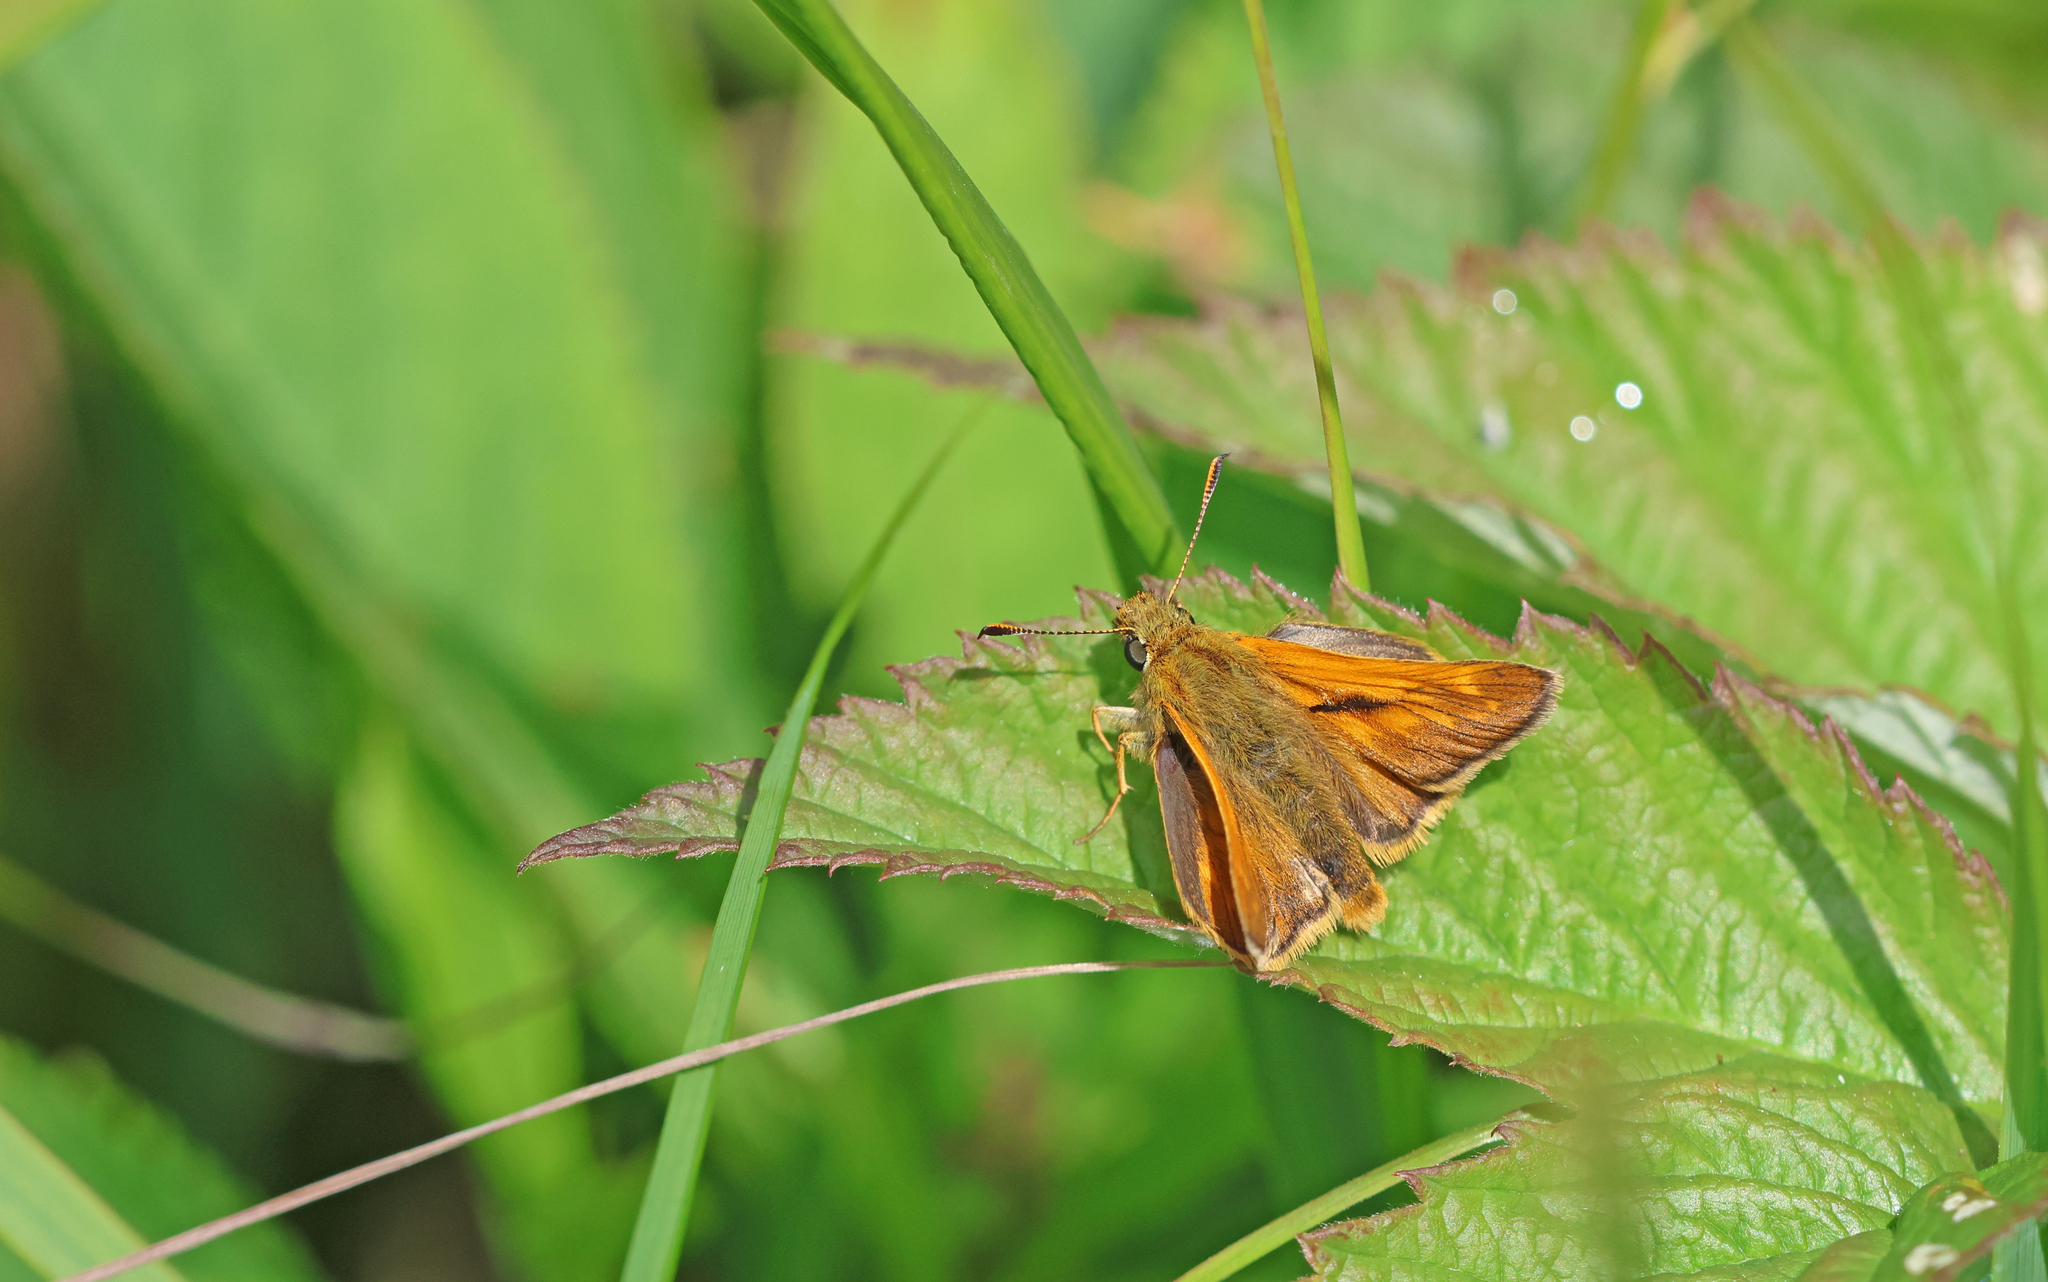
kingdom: Animalia
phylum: Arthropoda
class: Insecta
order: Lepidoptera
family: Hesperiidae
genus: Ochlodes
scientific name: Ochlodes venata
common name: Large skipper
